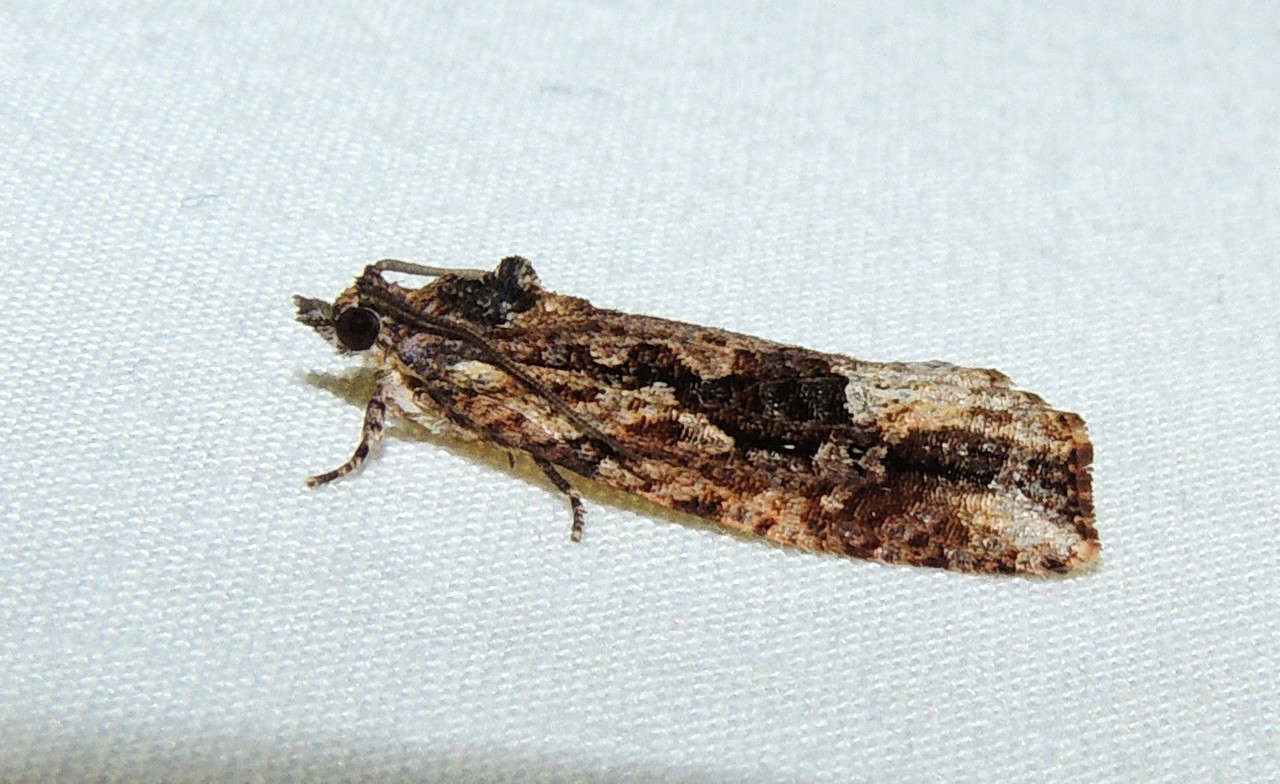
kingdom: Animalia
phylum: Arthropoda
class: Insecta
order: Lepidoptera
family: Tortricidae
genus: Thrincophora
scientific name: Thrincophora lignigerana
